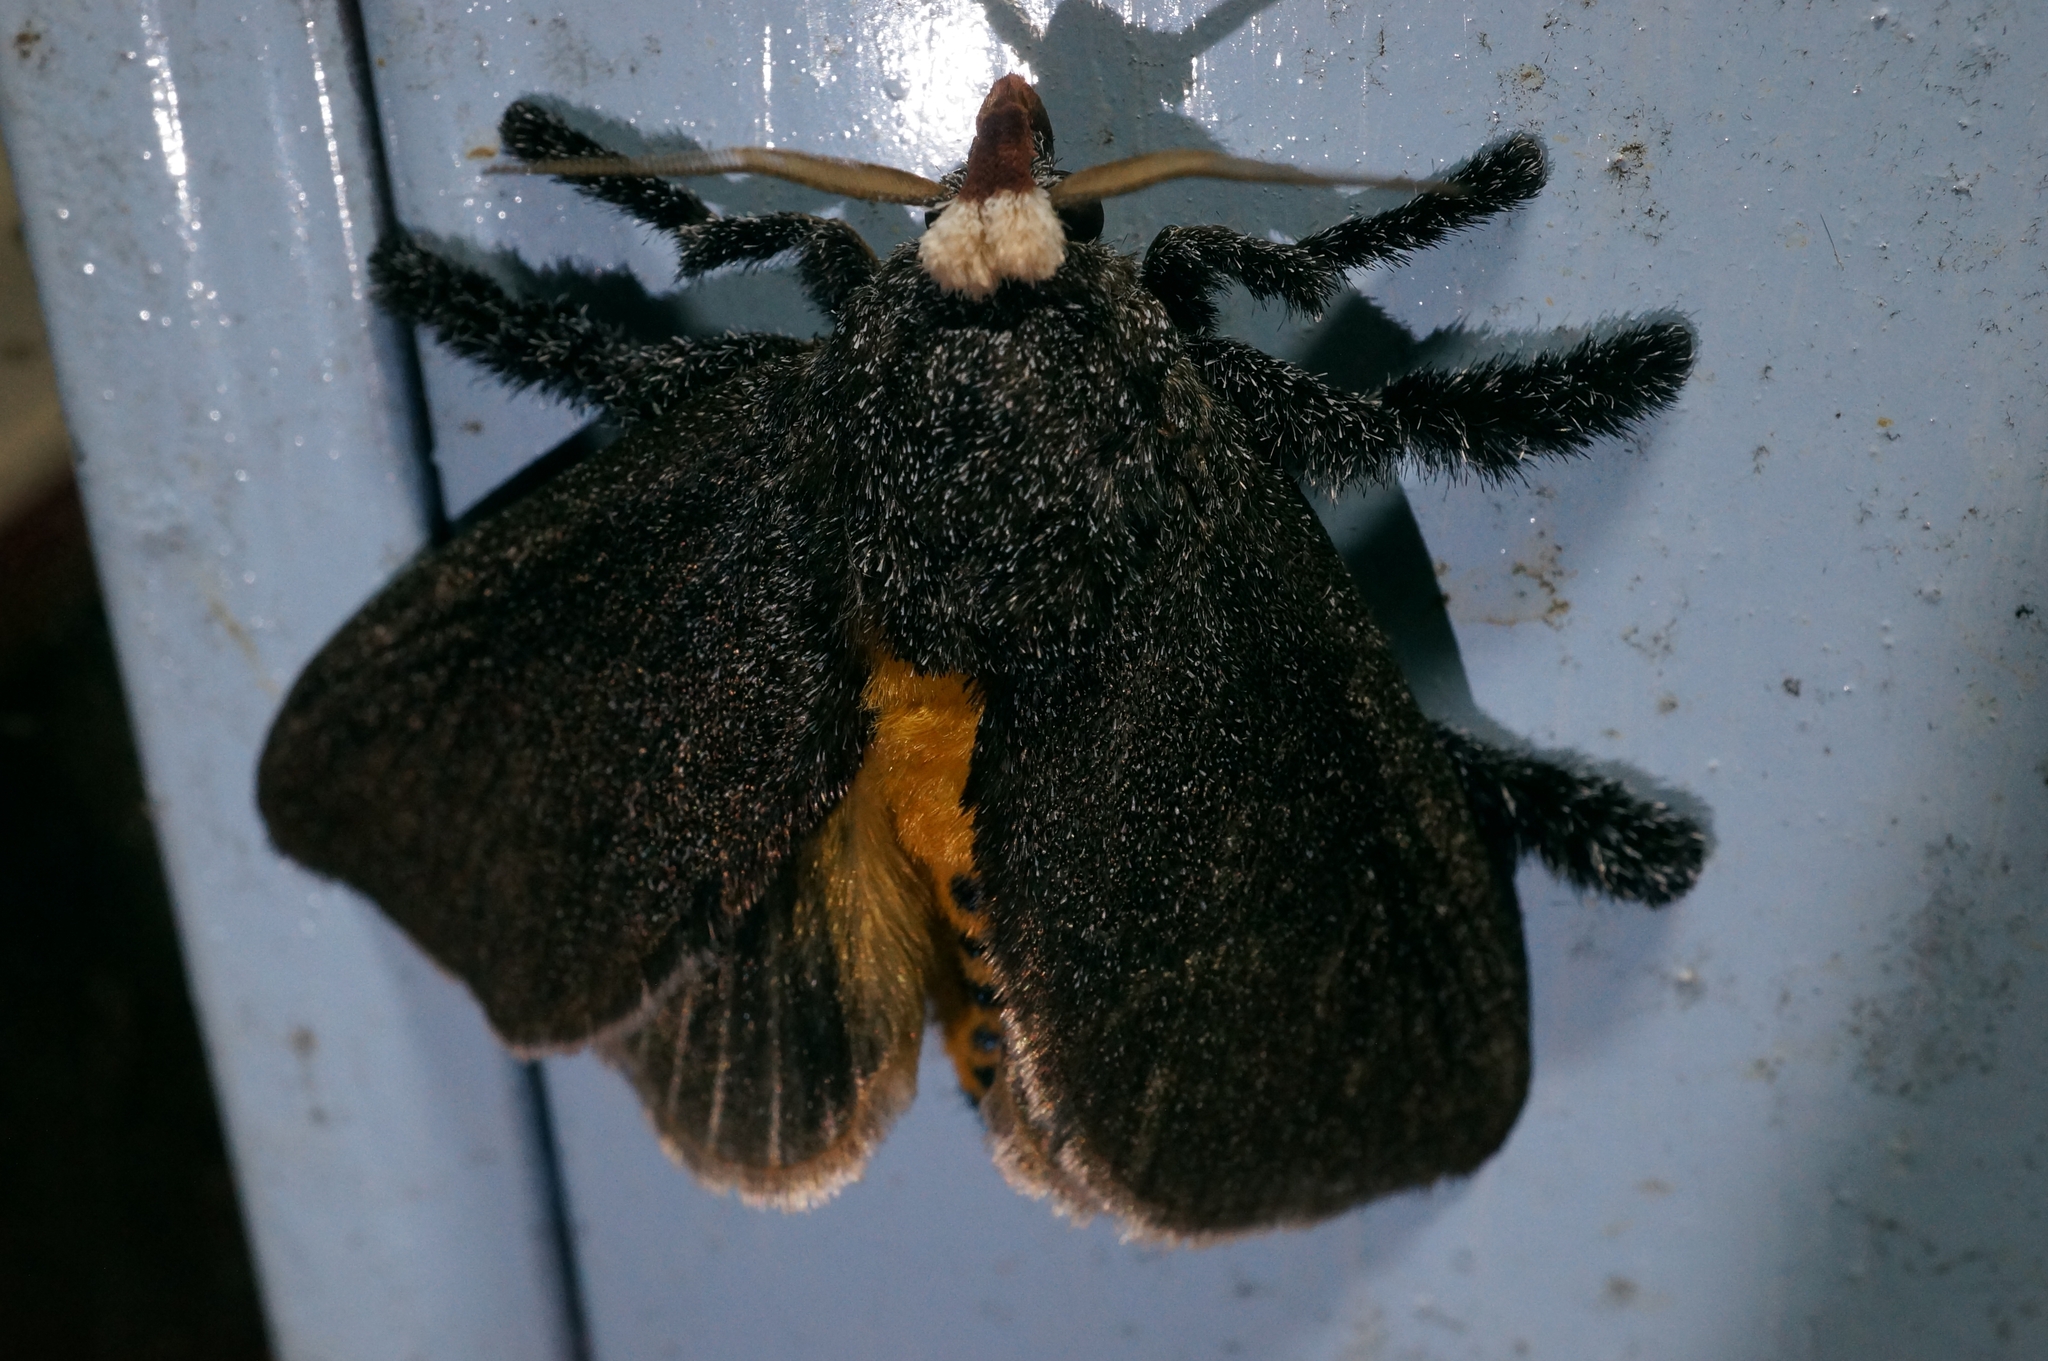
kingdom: Animalia
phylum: Arthropoda
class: Insecta
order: Lepidoptera
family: Limacodidae
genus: Scopelodes
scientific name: Scopelodes venosa
